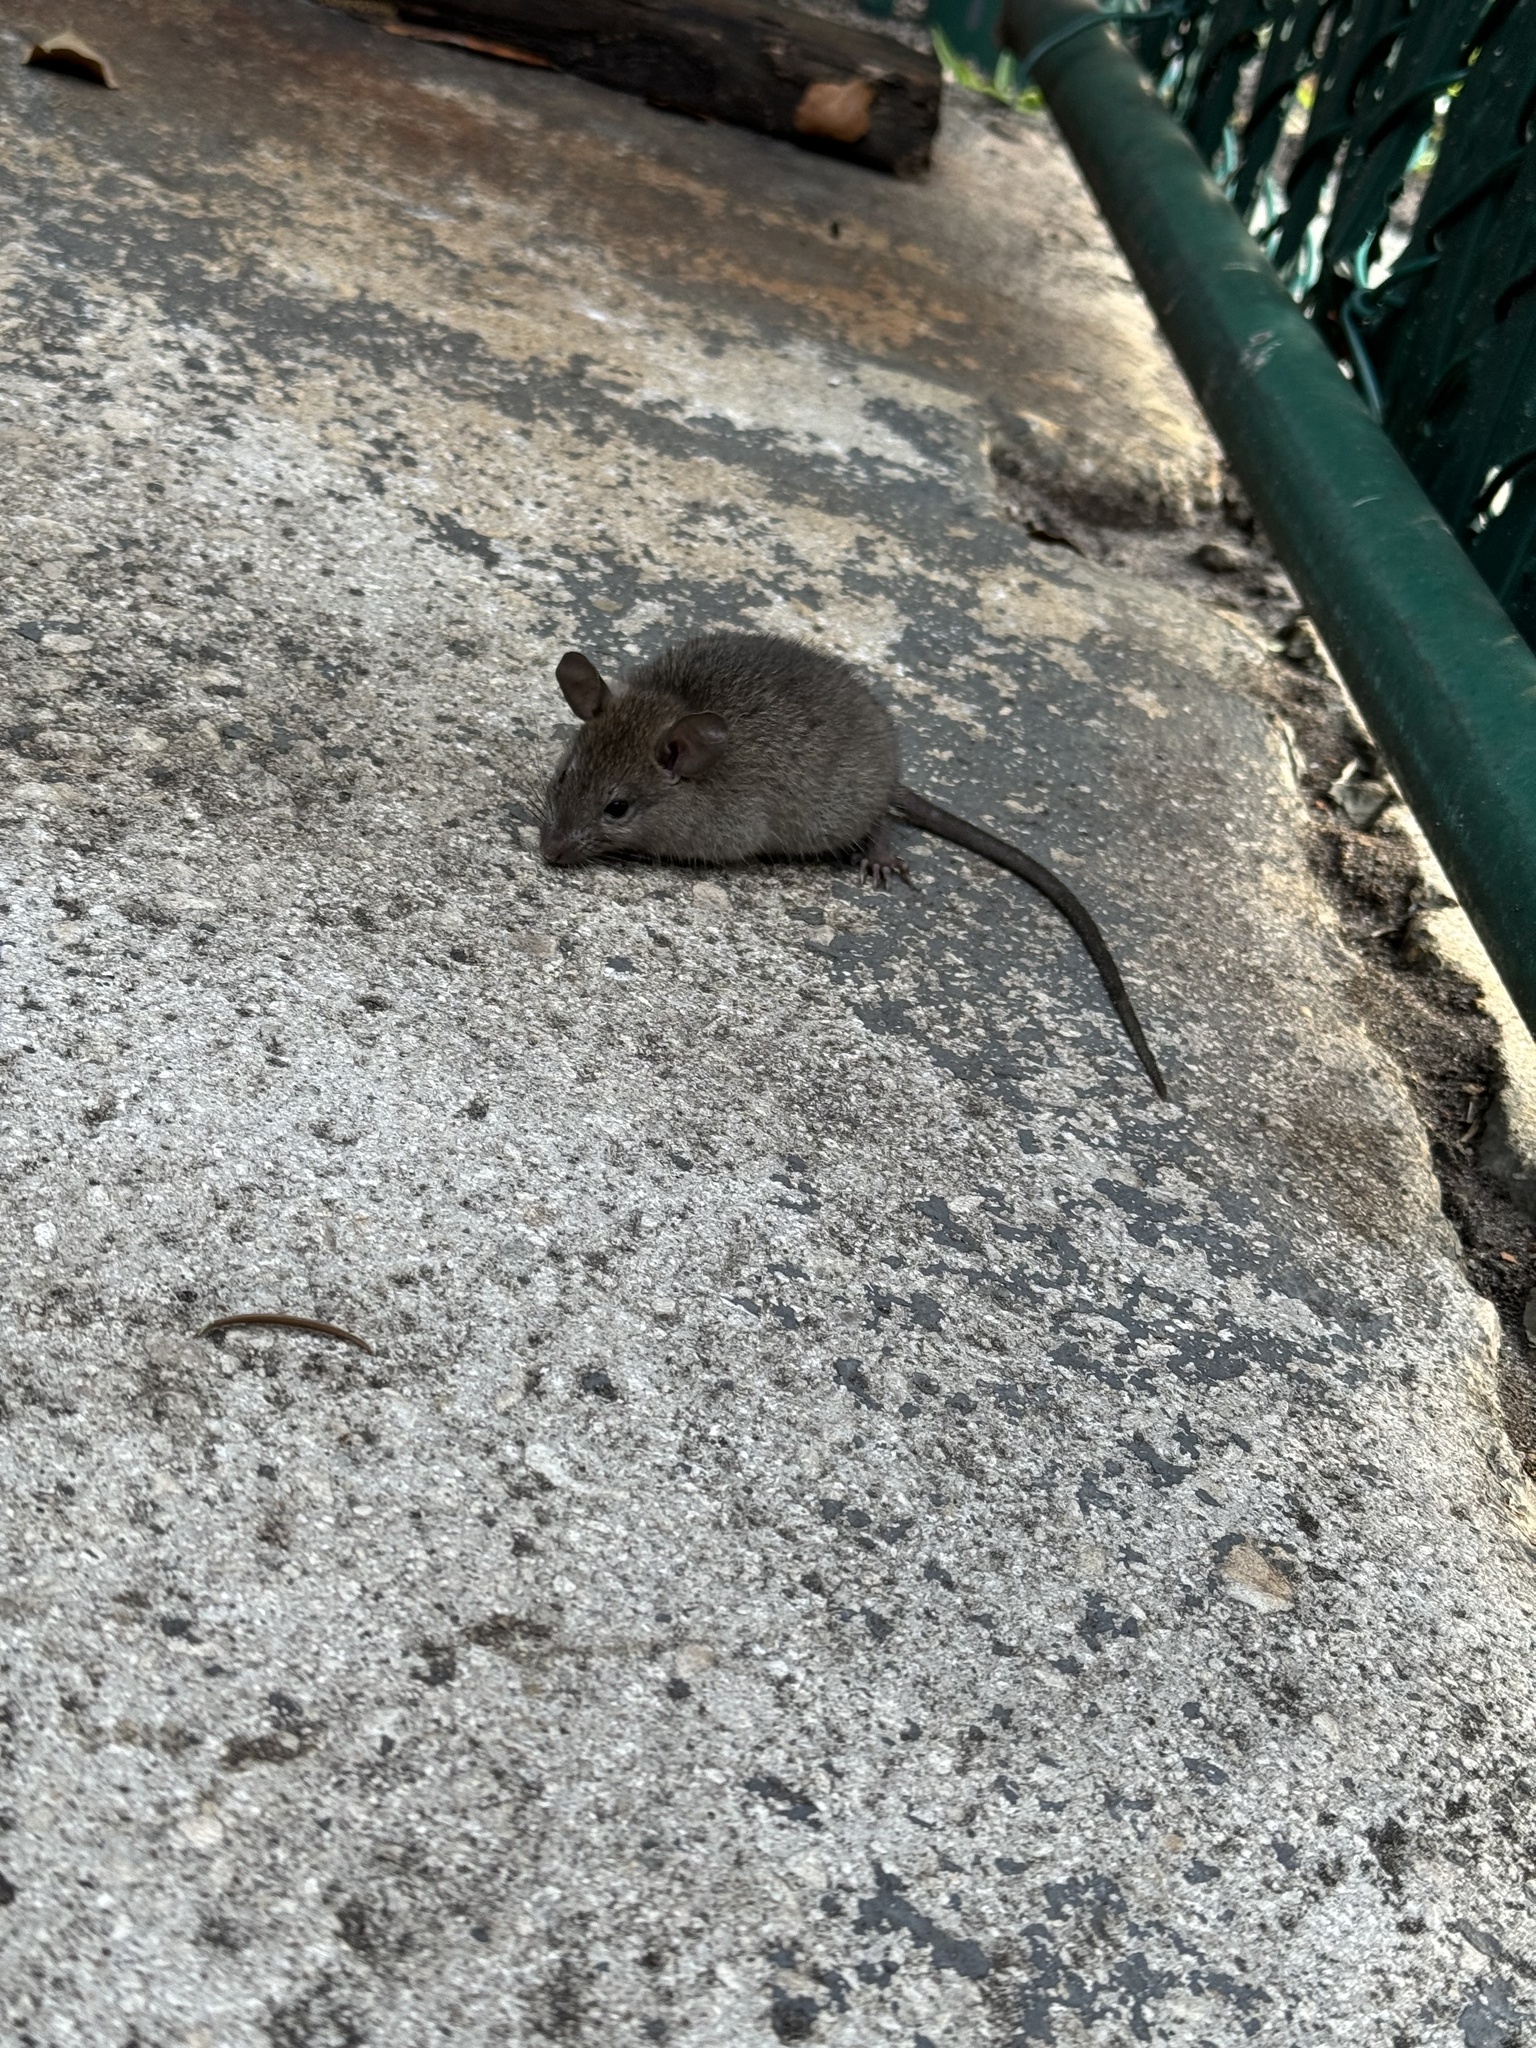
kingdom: Animalia
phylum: Chordata
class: Mammalia
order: Rodentia
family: Muridae
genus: Rattus
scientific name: Rattus rattus
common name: Black rat
